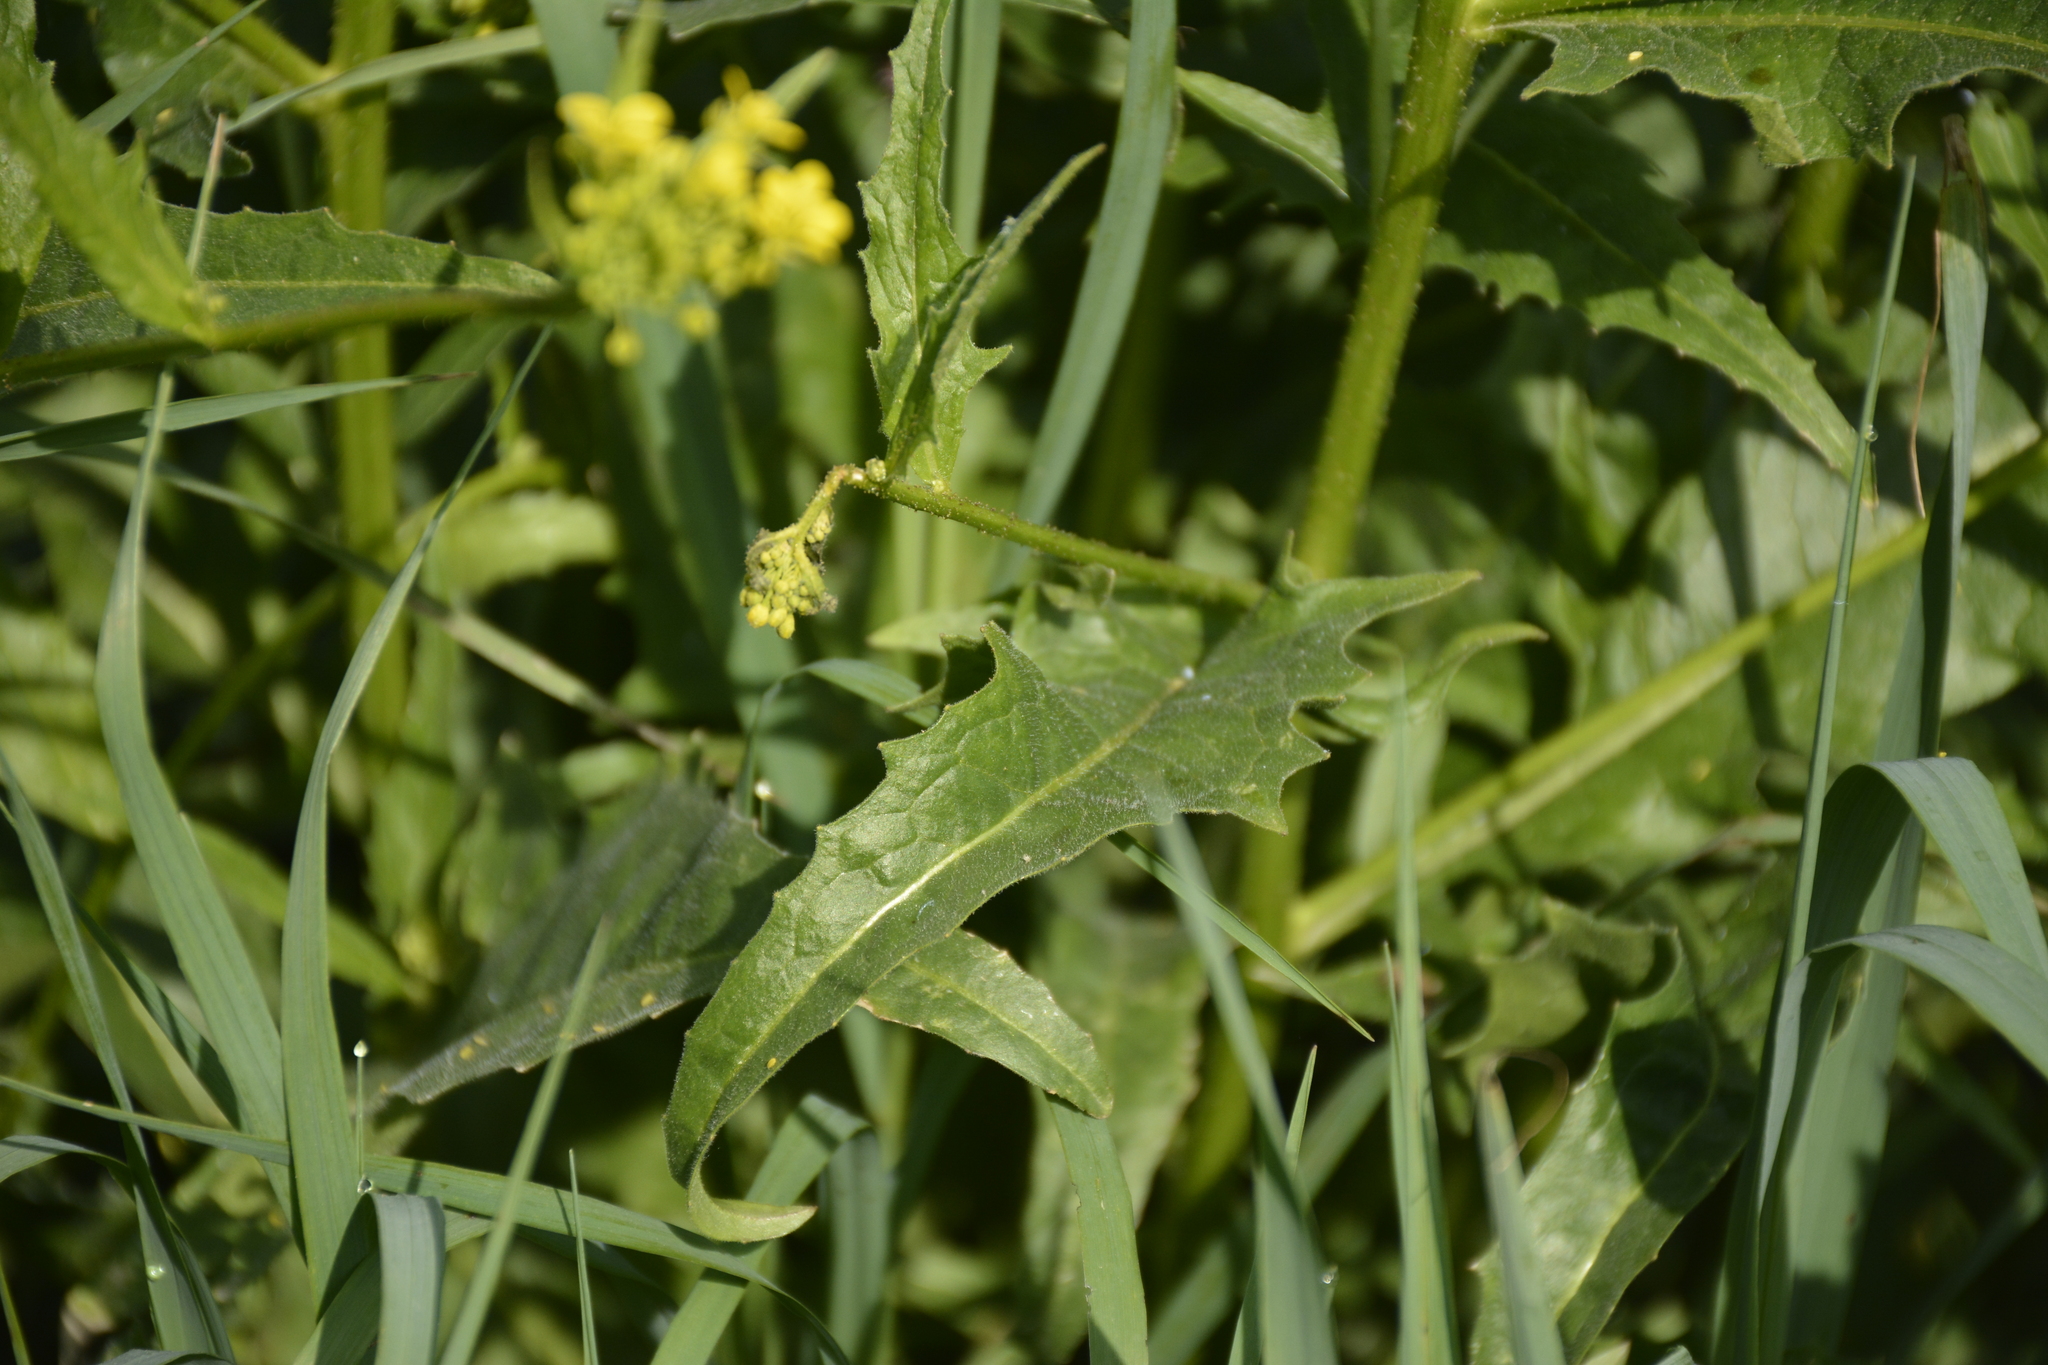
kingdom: Plantae
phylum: Tracheophyta
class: Magnoliopsida
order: Brassicales
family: Brassicaceae
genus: Bunias
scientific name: Bunias orientalis
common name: Warty-cabbage
